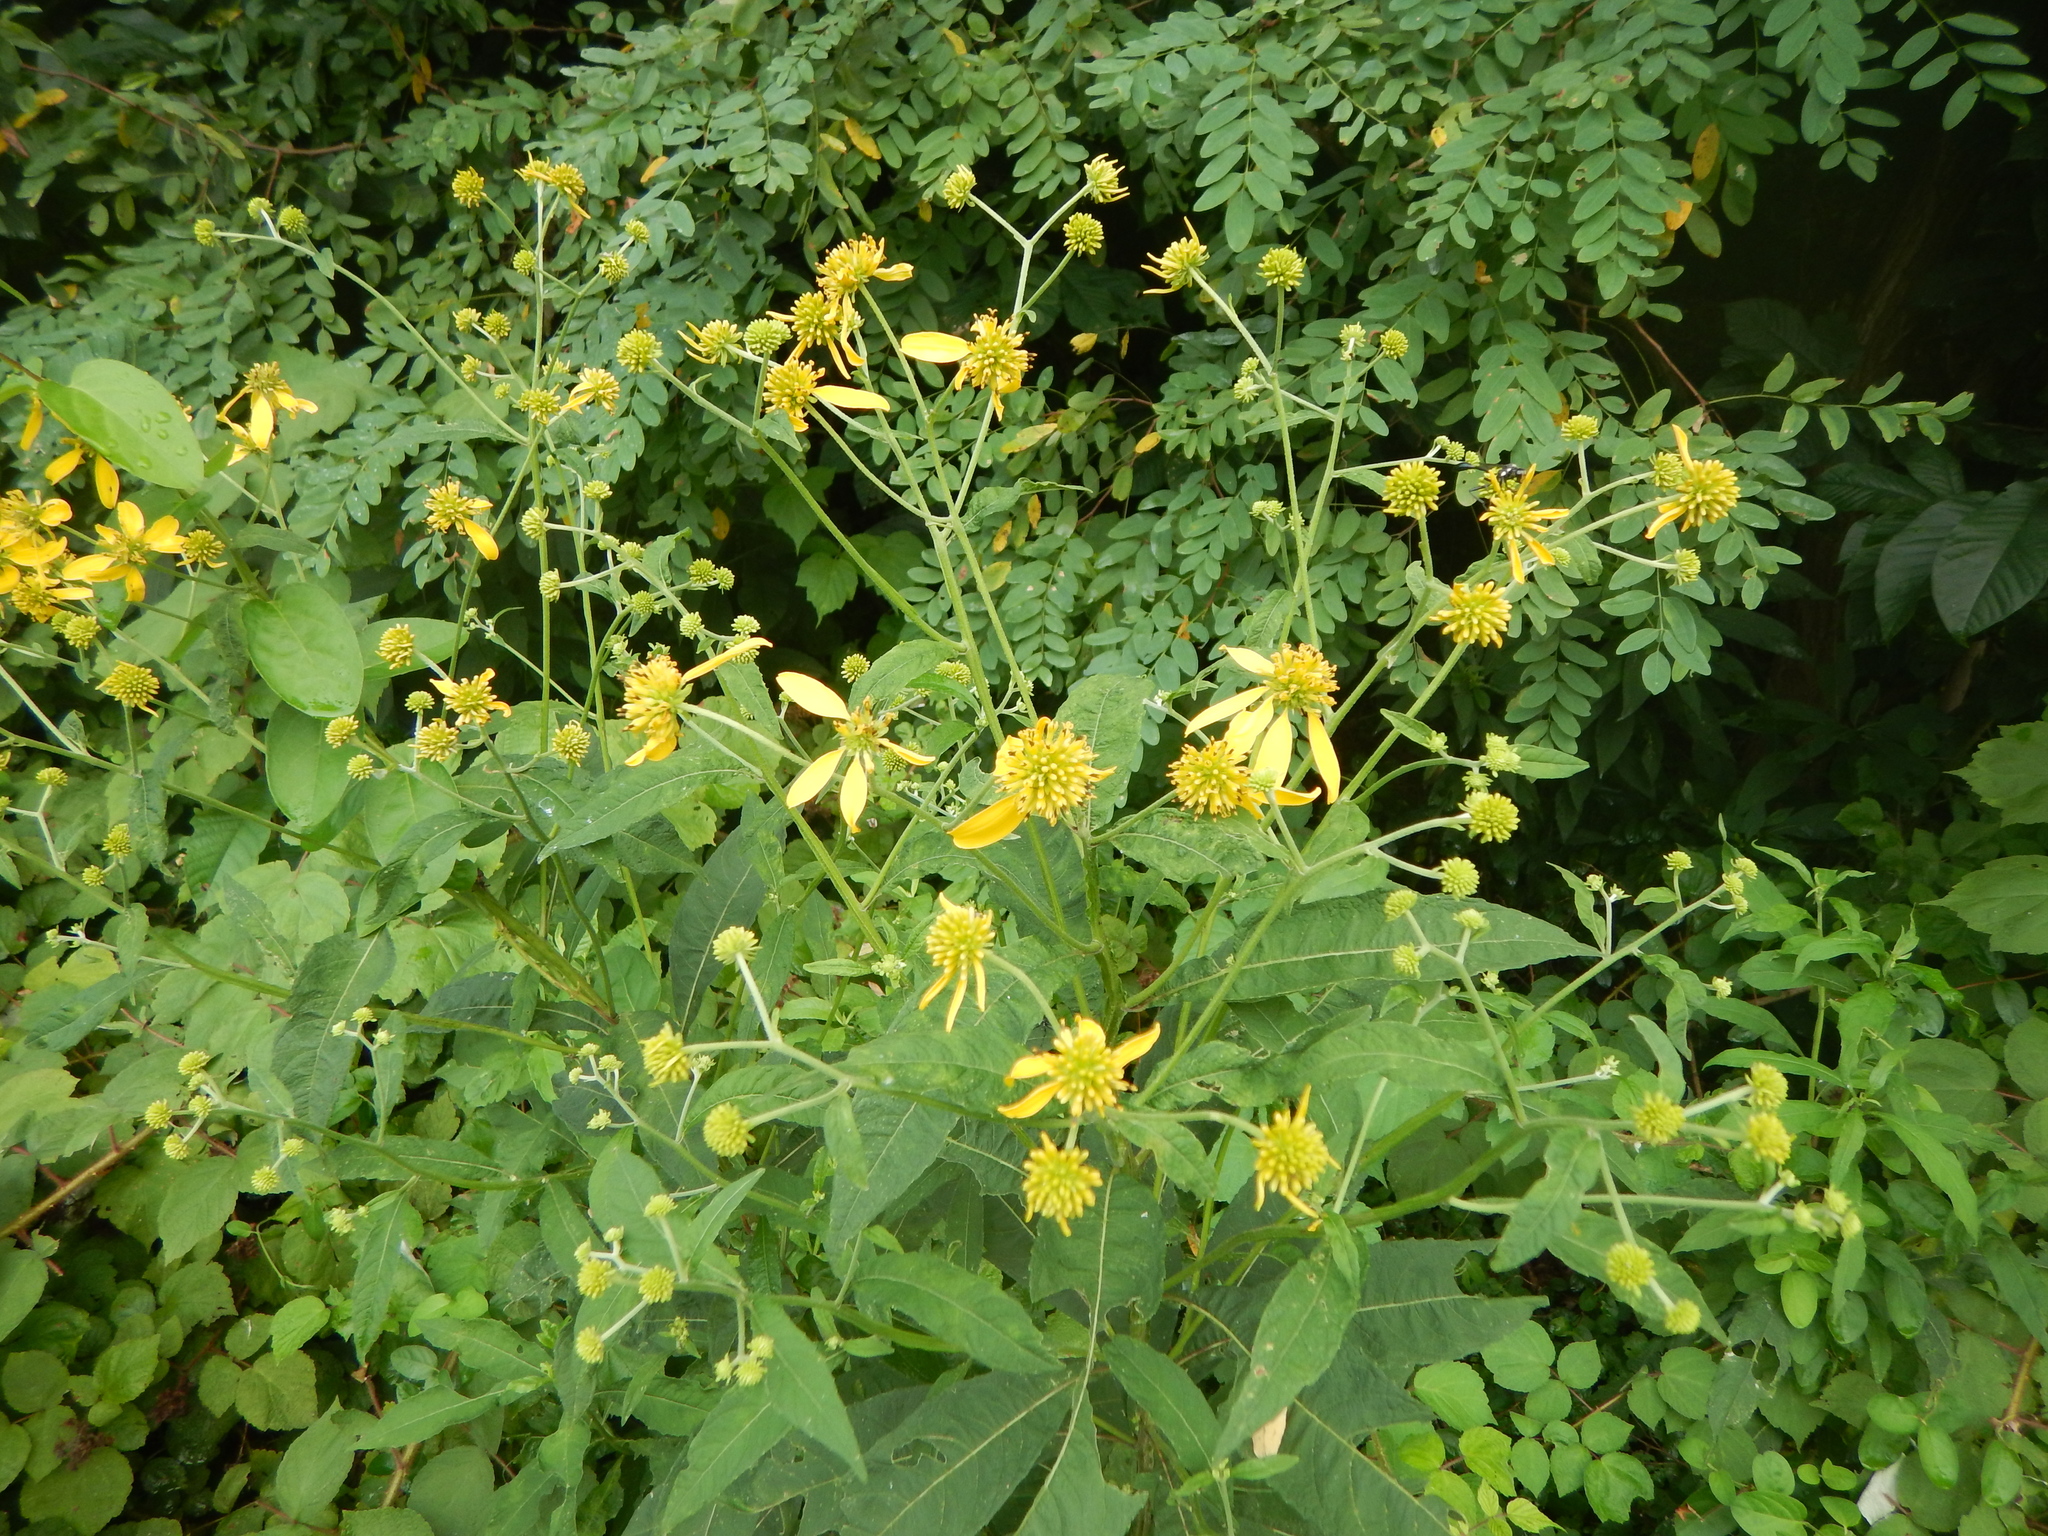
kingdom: Plantae
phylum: Tracheophyta
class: Magnoliopsida
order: Asterales
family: Asteraceae
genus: Verbesina
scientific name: Verbesina alternifolia
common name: Wingstem
